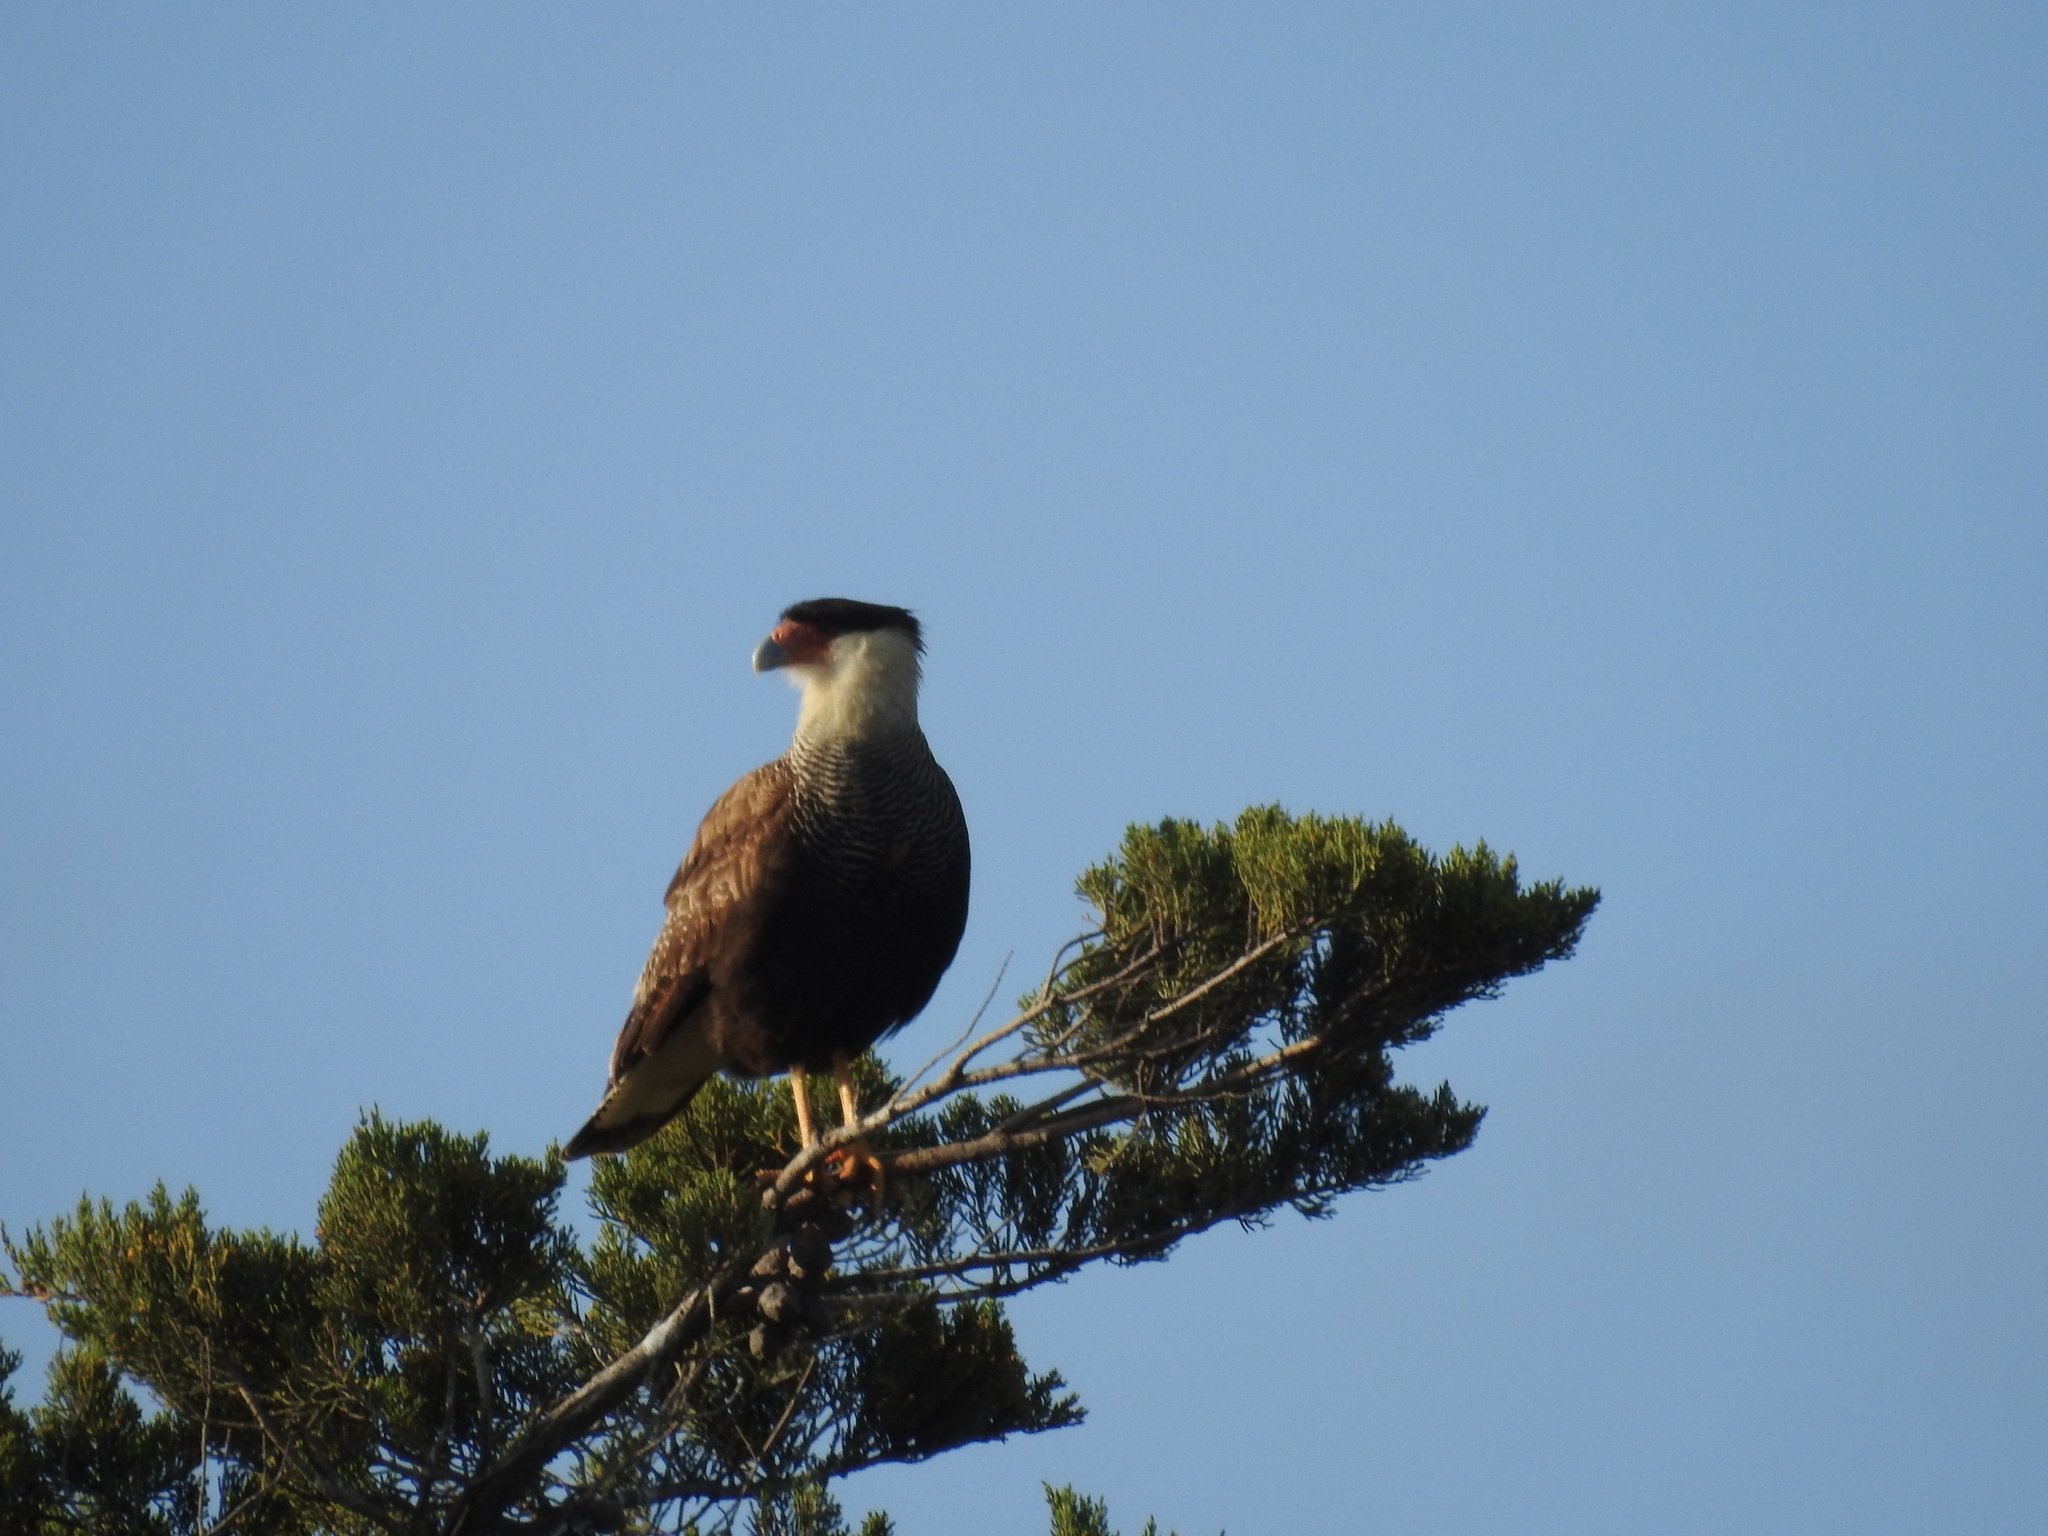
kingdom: Animalia
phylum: Chordata
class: Aves
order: Falconiformes
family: Falconidae
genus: Caracara
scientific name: Caracara plancus
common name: Southern caracara
